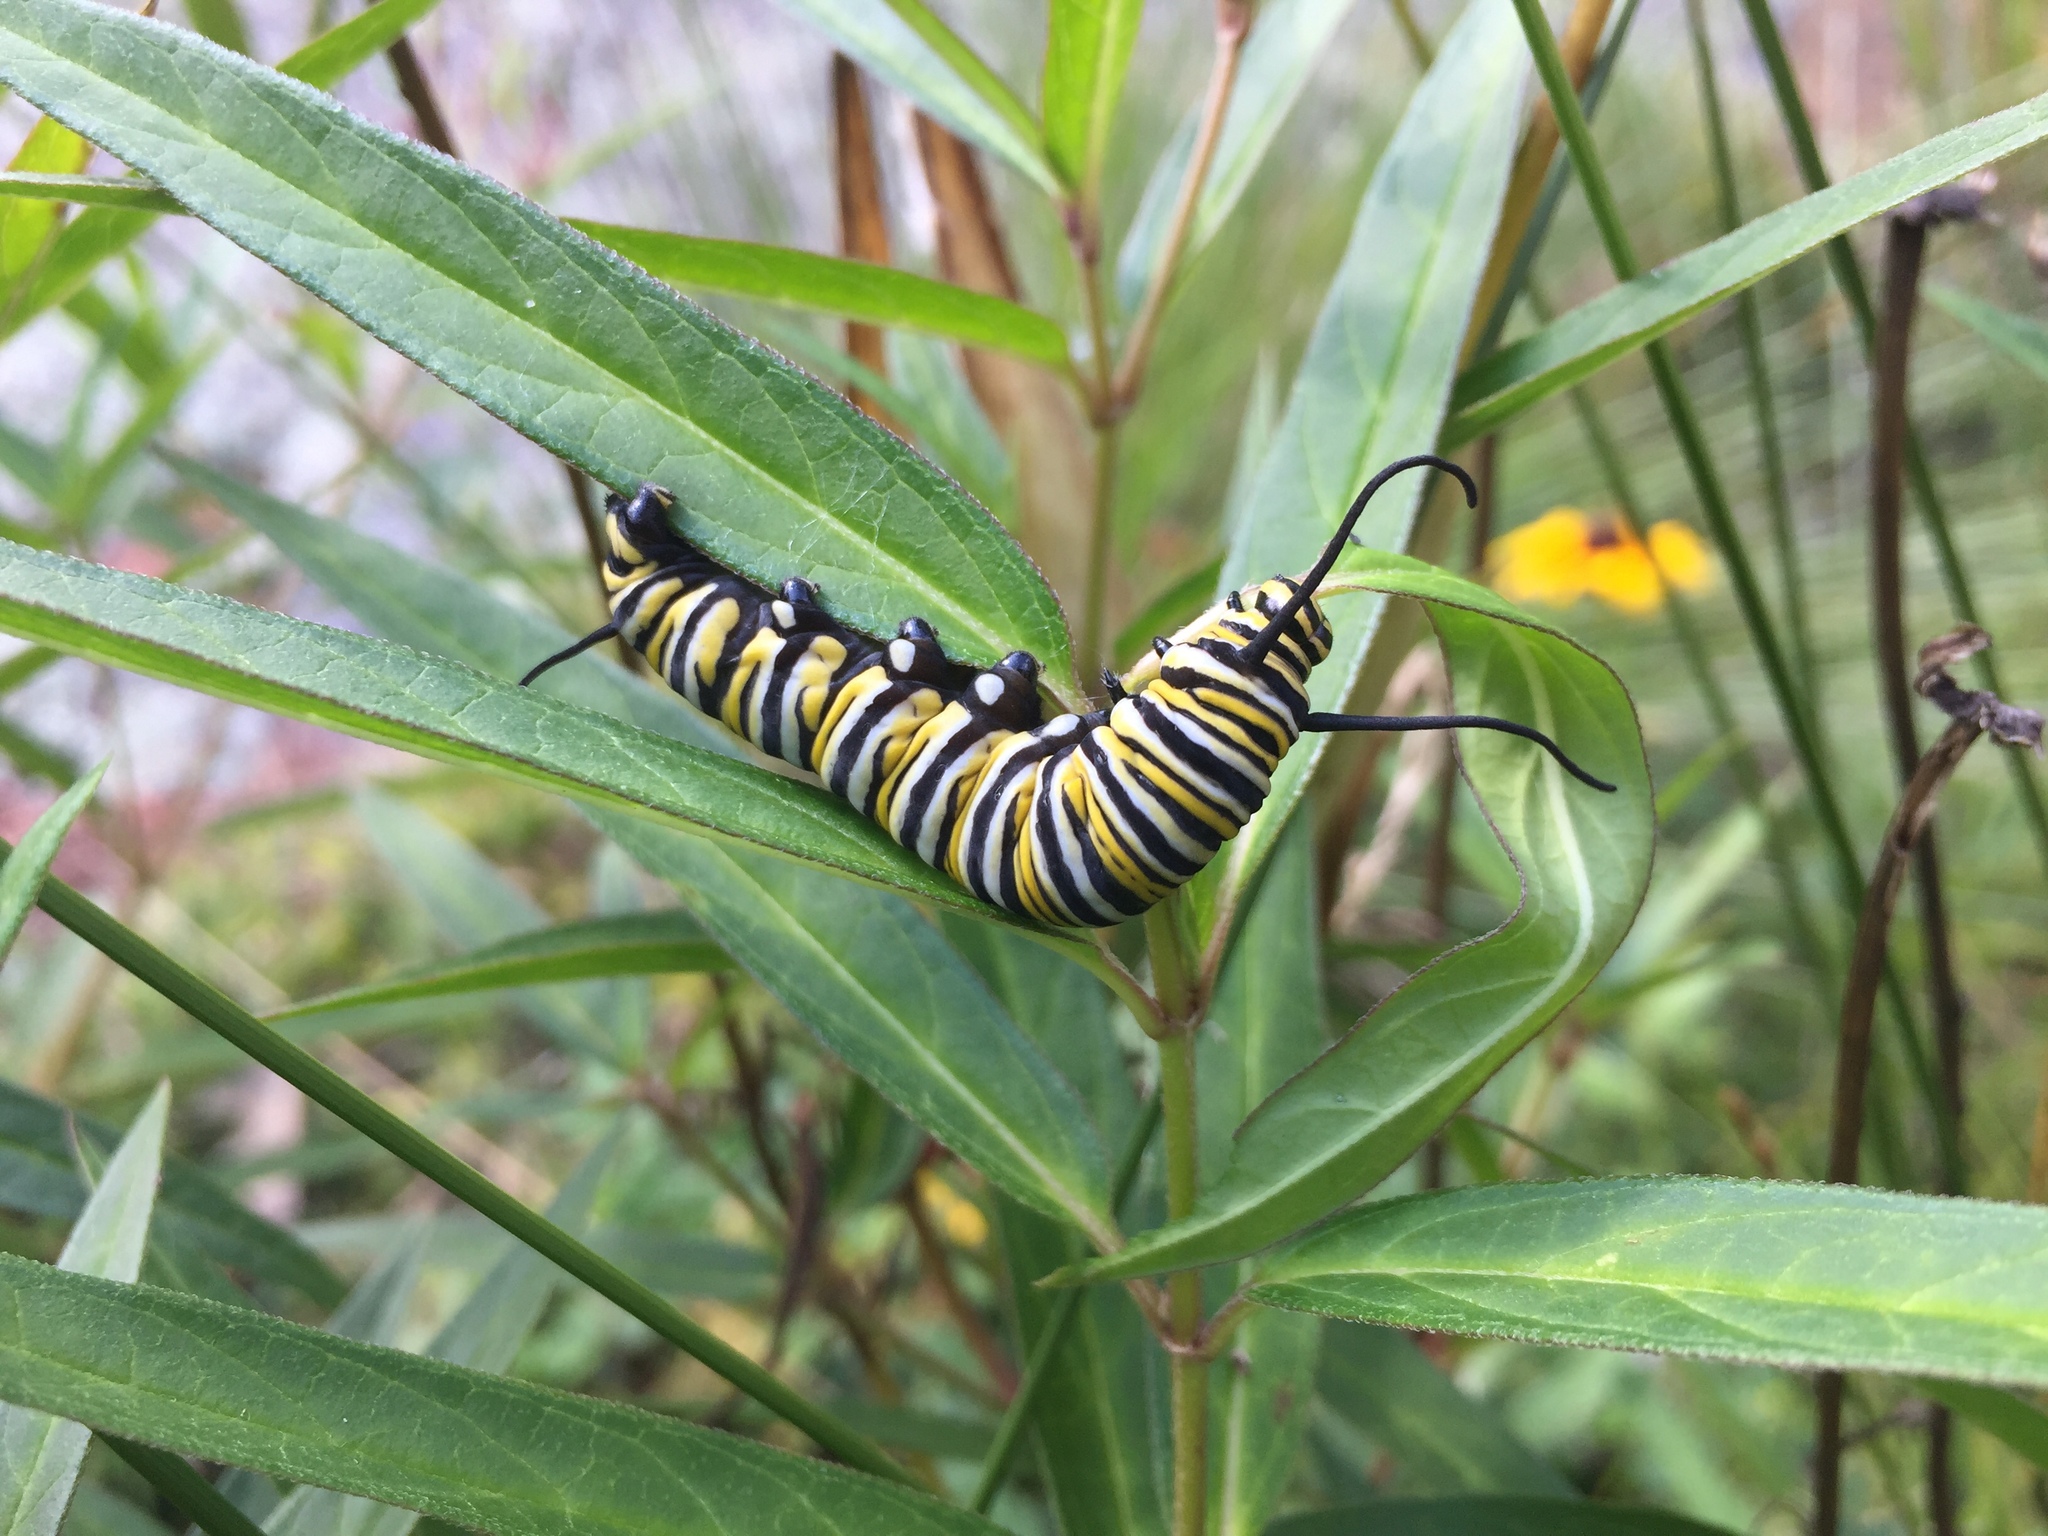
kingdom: Animalia
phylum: Arthropoda
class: Insecta
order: Lepidoptera
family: Nymphalidae
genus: Danaus
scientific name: Danaus plexippus
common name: Monarch
